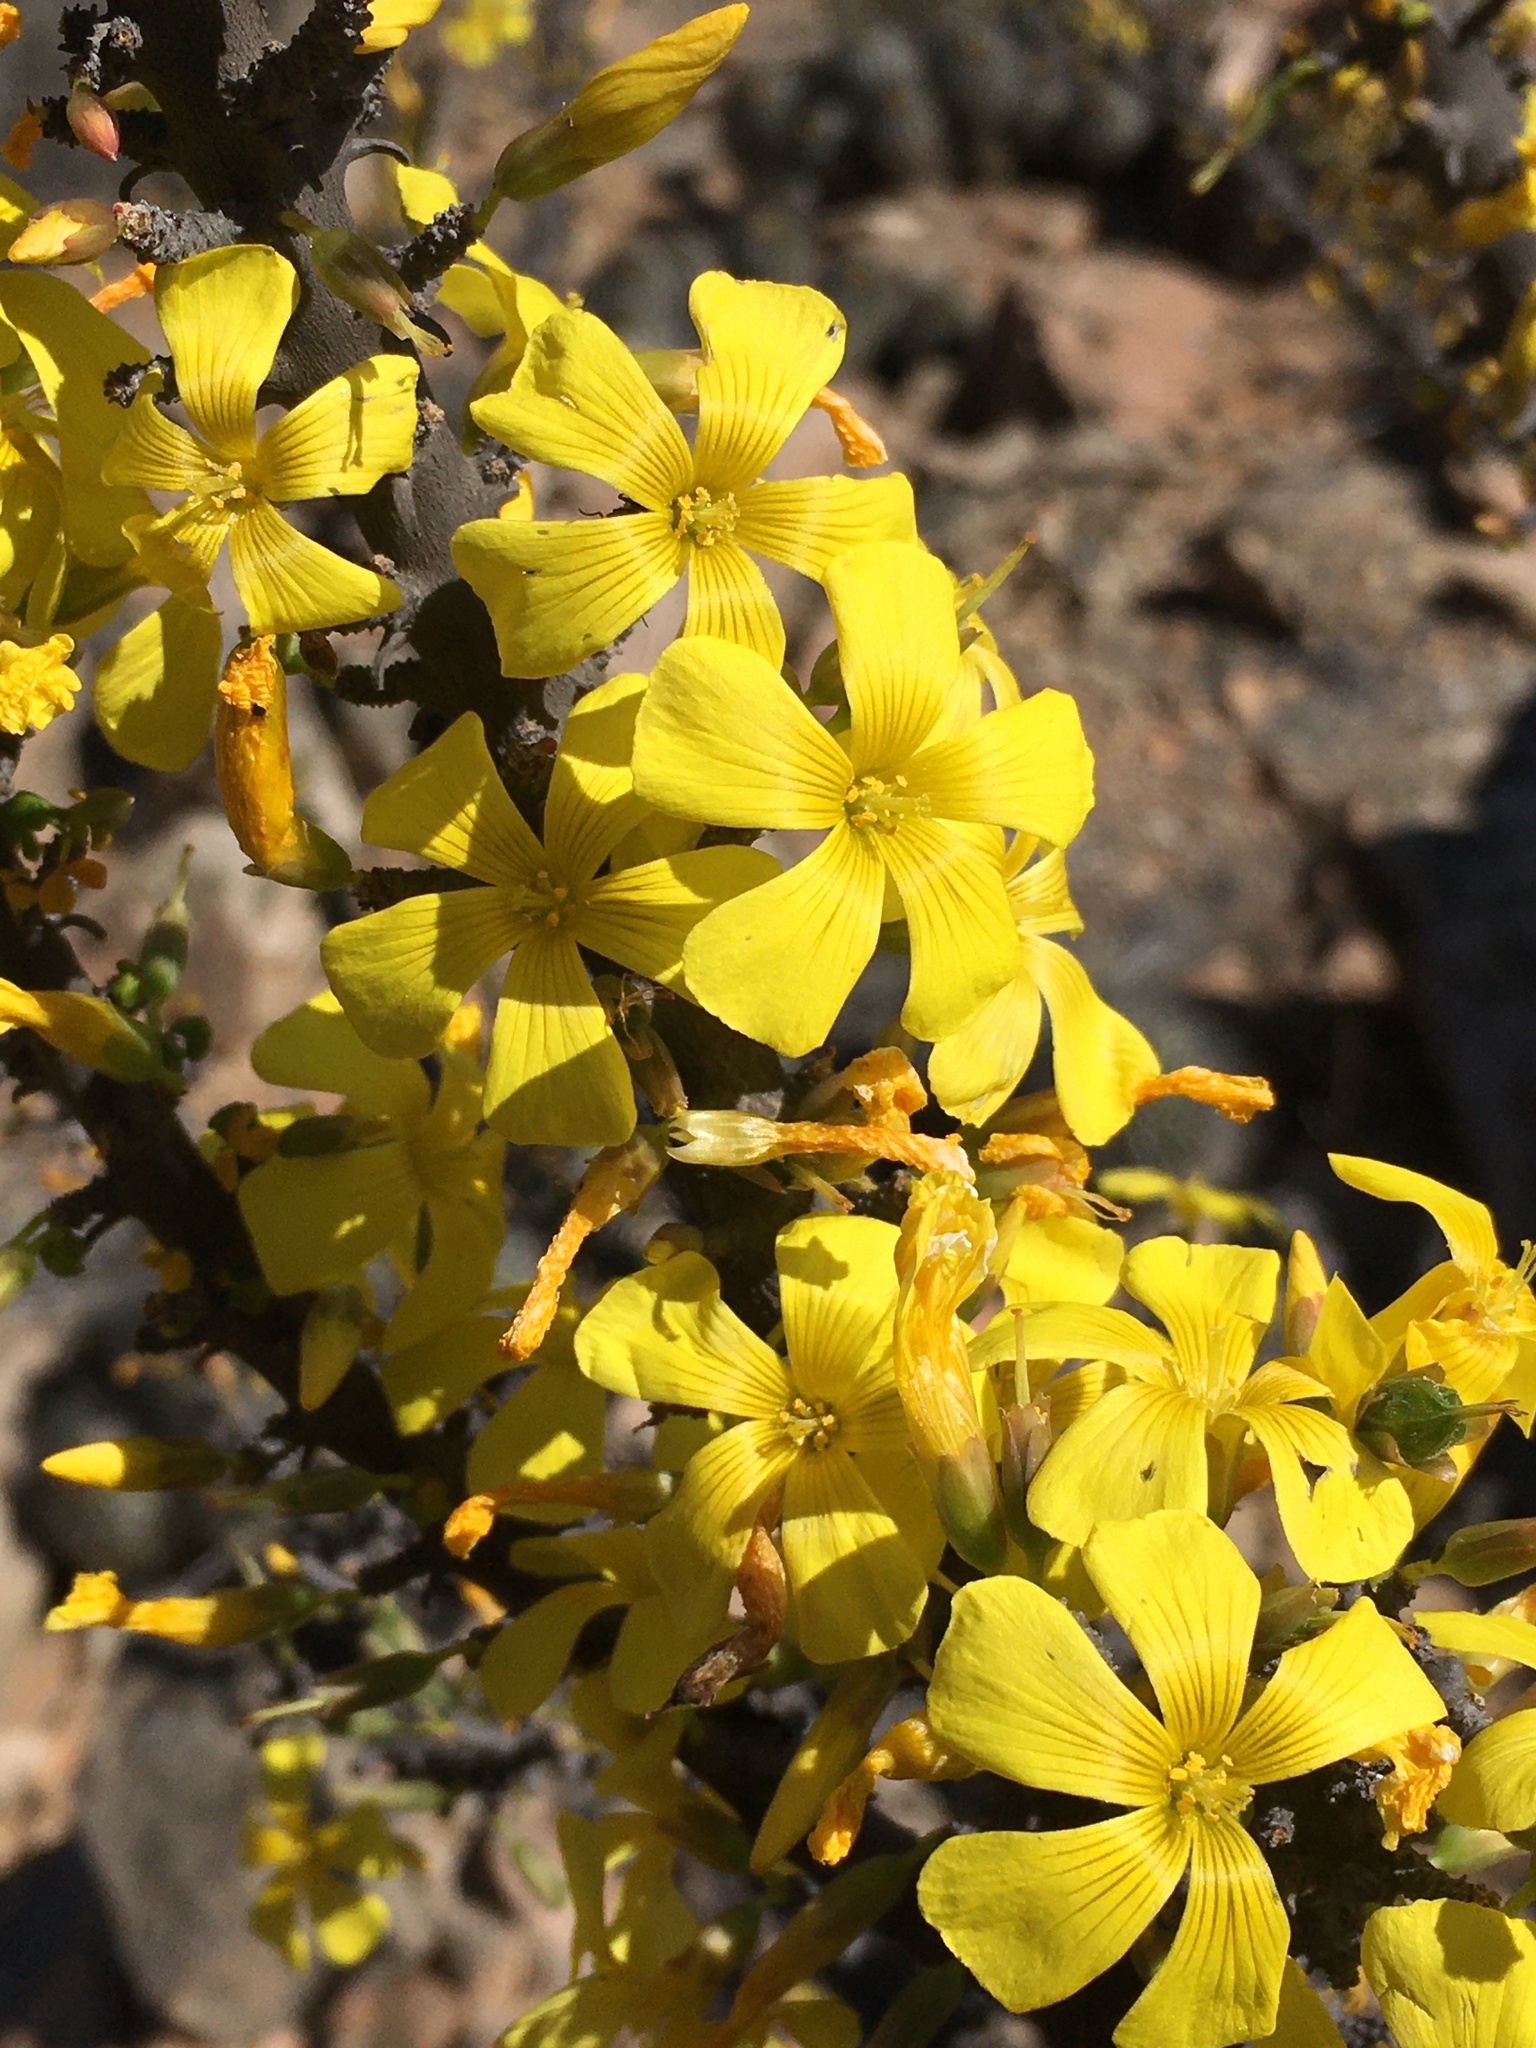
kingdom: Plantae
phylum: Tracheophyta
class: Magnoliopsida
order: Oxalidales
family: Oxalidaceae
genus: Oxalis
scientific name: Oxalis gigantea
